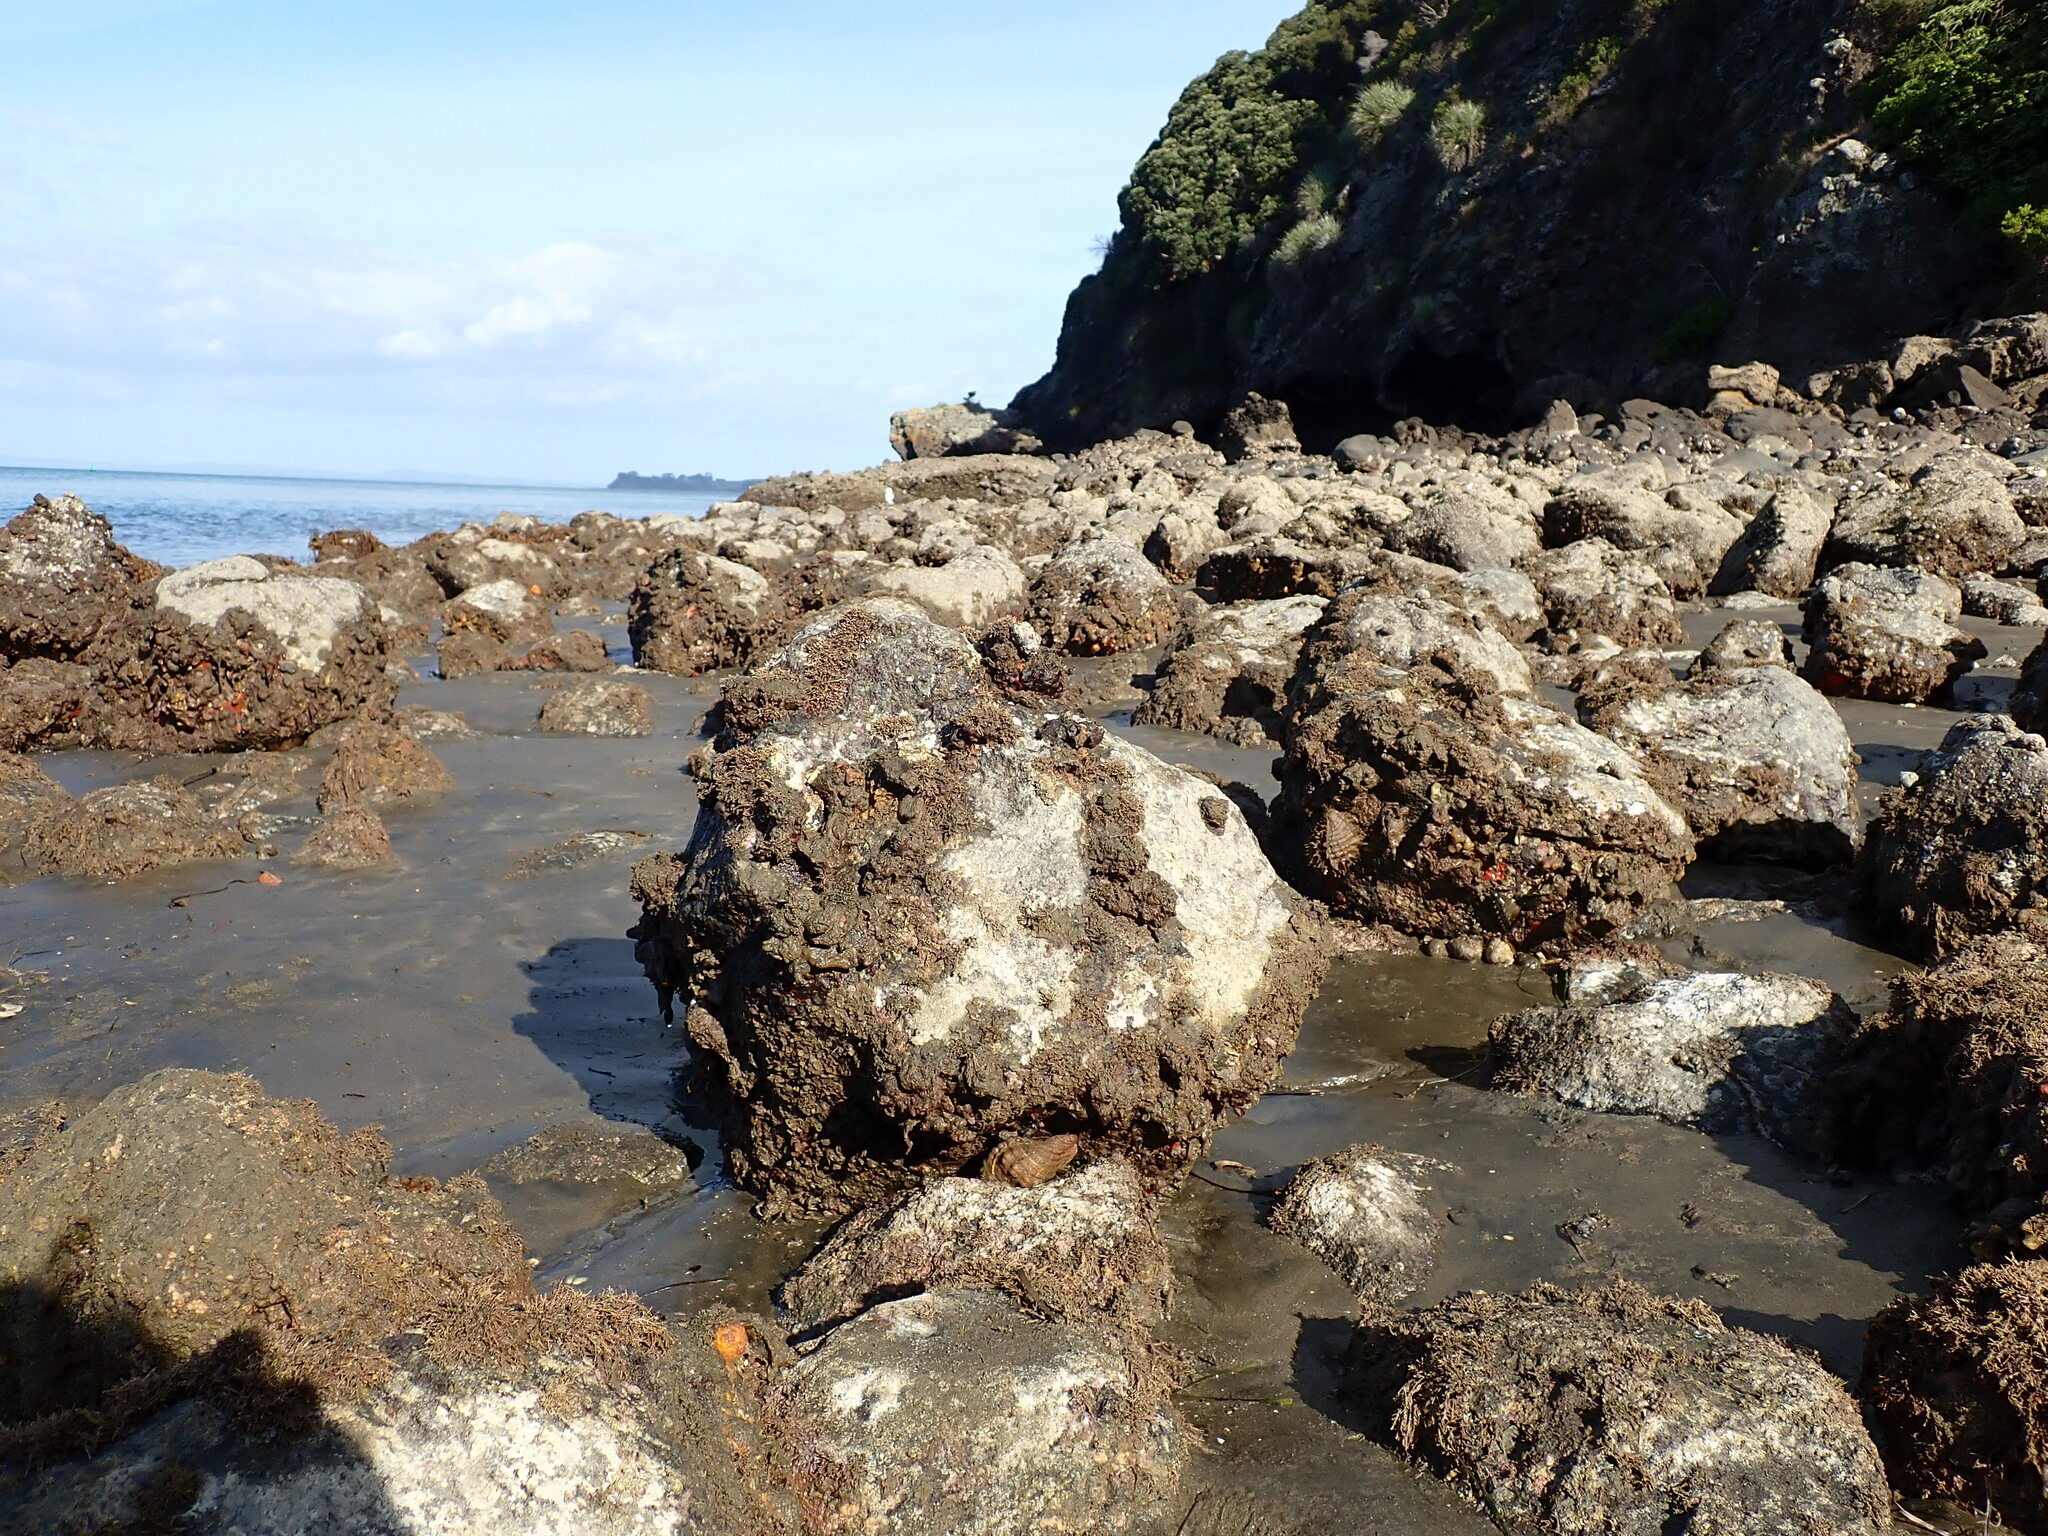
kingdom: Animalia
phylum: Mollusca
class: Gastropoda
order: Littorinimorpha
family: Cymatiidae
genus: Monoplex
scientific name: Monoplex parthenopeus
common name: Giant triton
